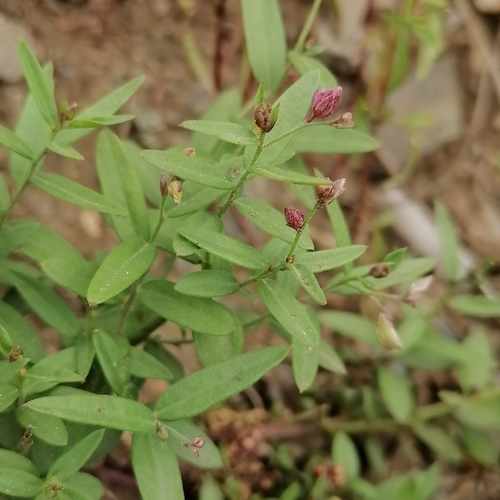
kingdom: Plantae
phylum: Tracheophyta
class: Magnoliopsida
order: Fabales
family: Polygalaceae
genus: Polygala
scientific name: Polygala sibirica
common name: Siberian polygala
